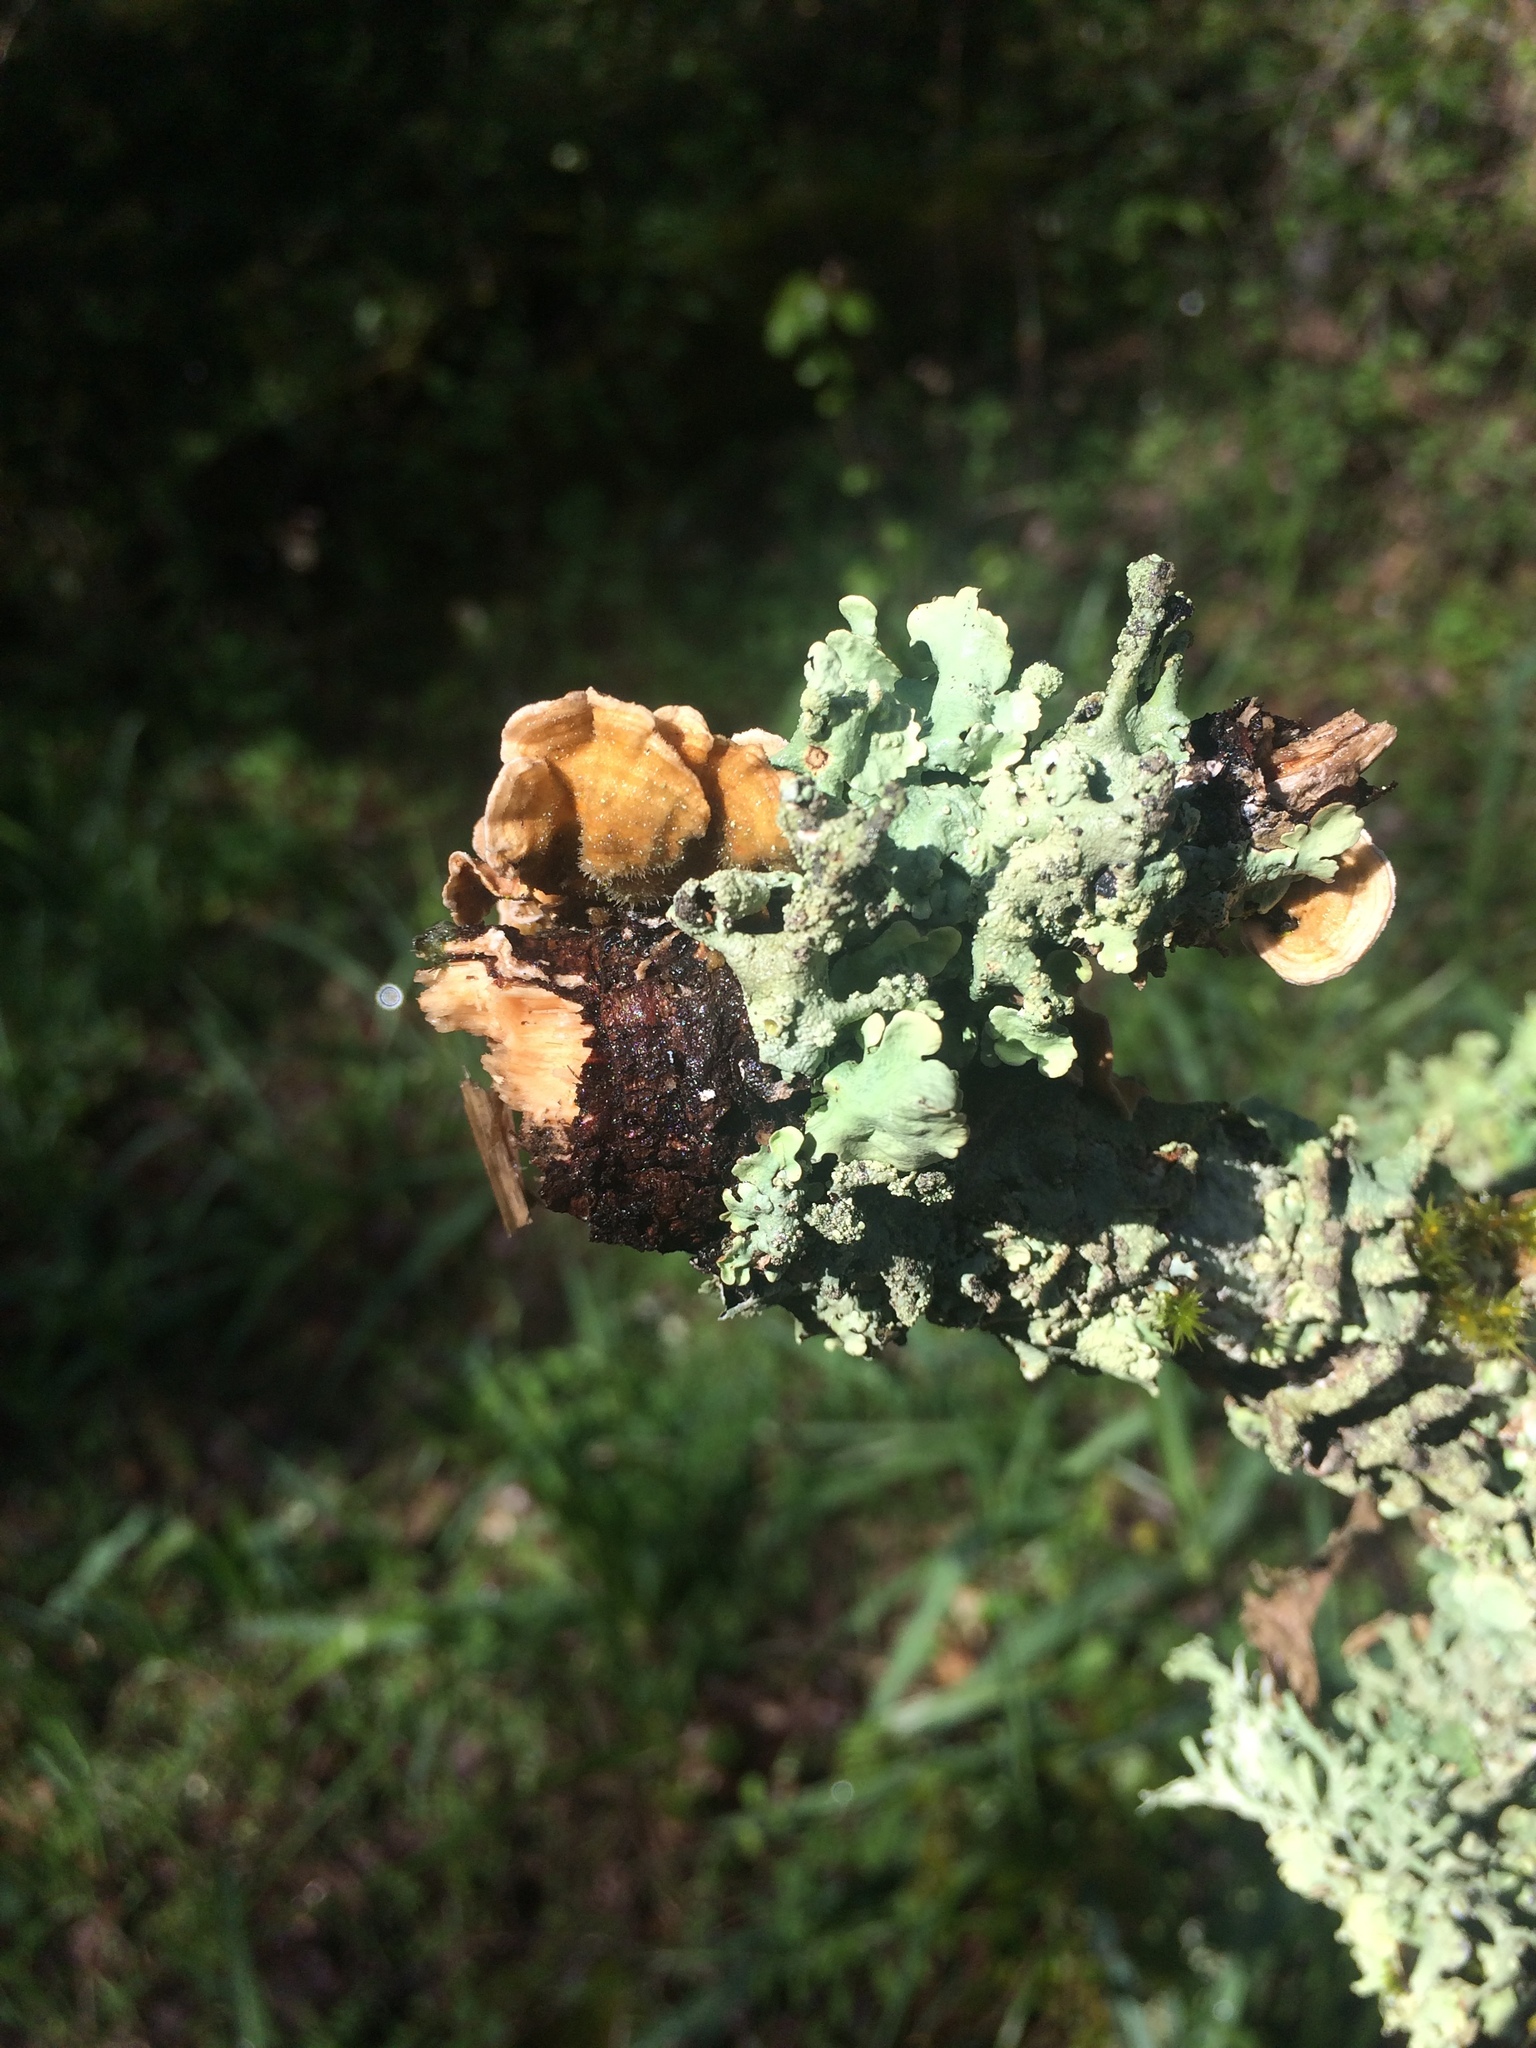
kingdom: Fungi
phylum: Basidiomycota
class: Agaricomycetes
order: Russulales
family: Stereaceae
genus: Stereum
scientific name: Stereum hirsutum
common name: Hairy curtain crust
